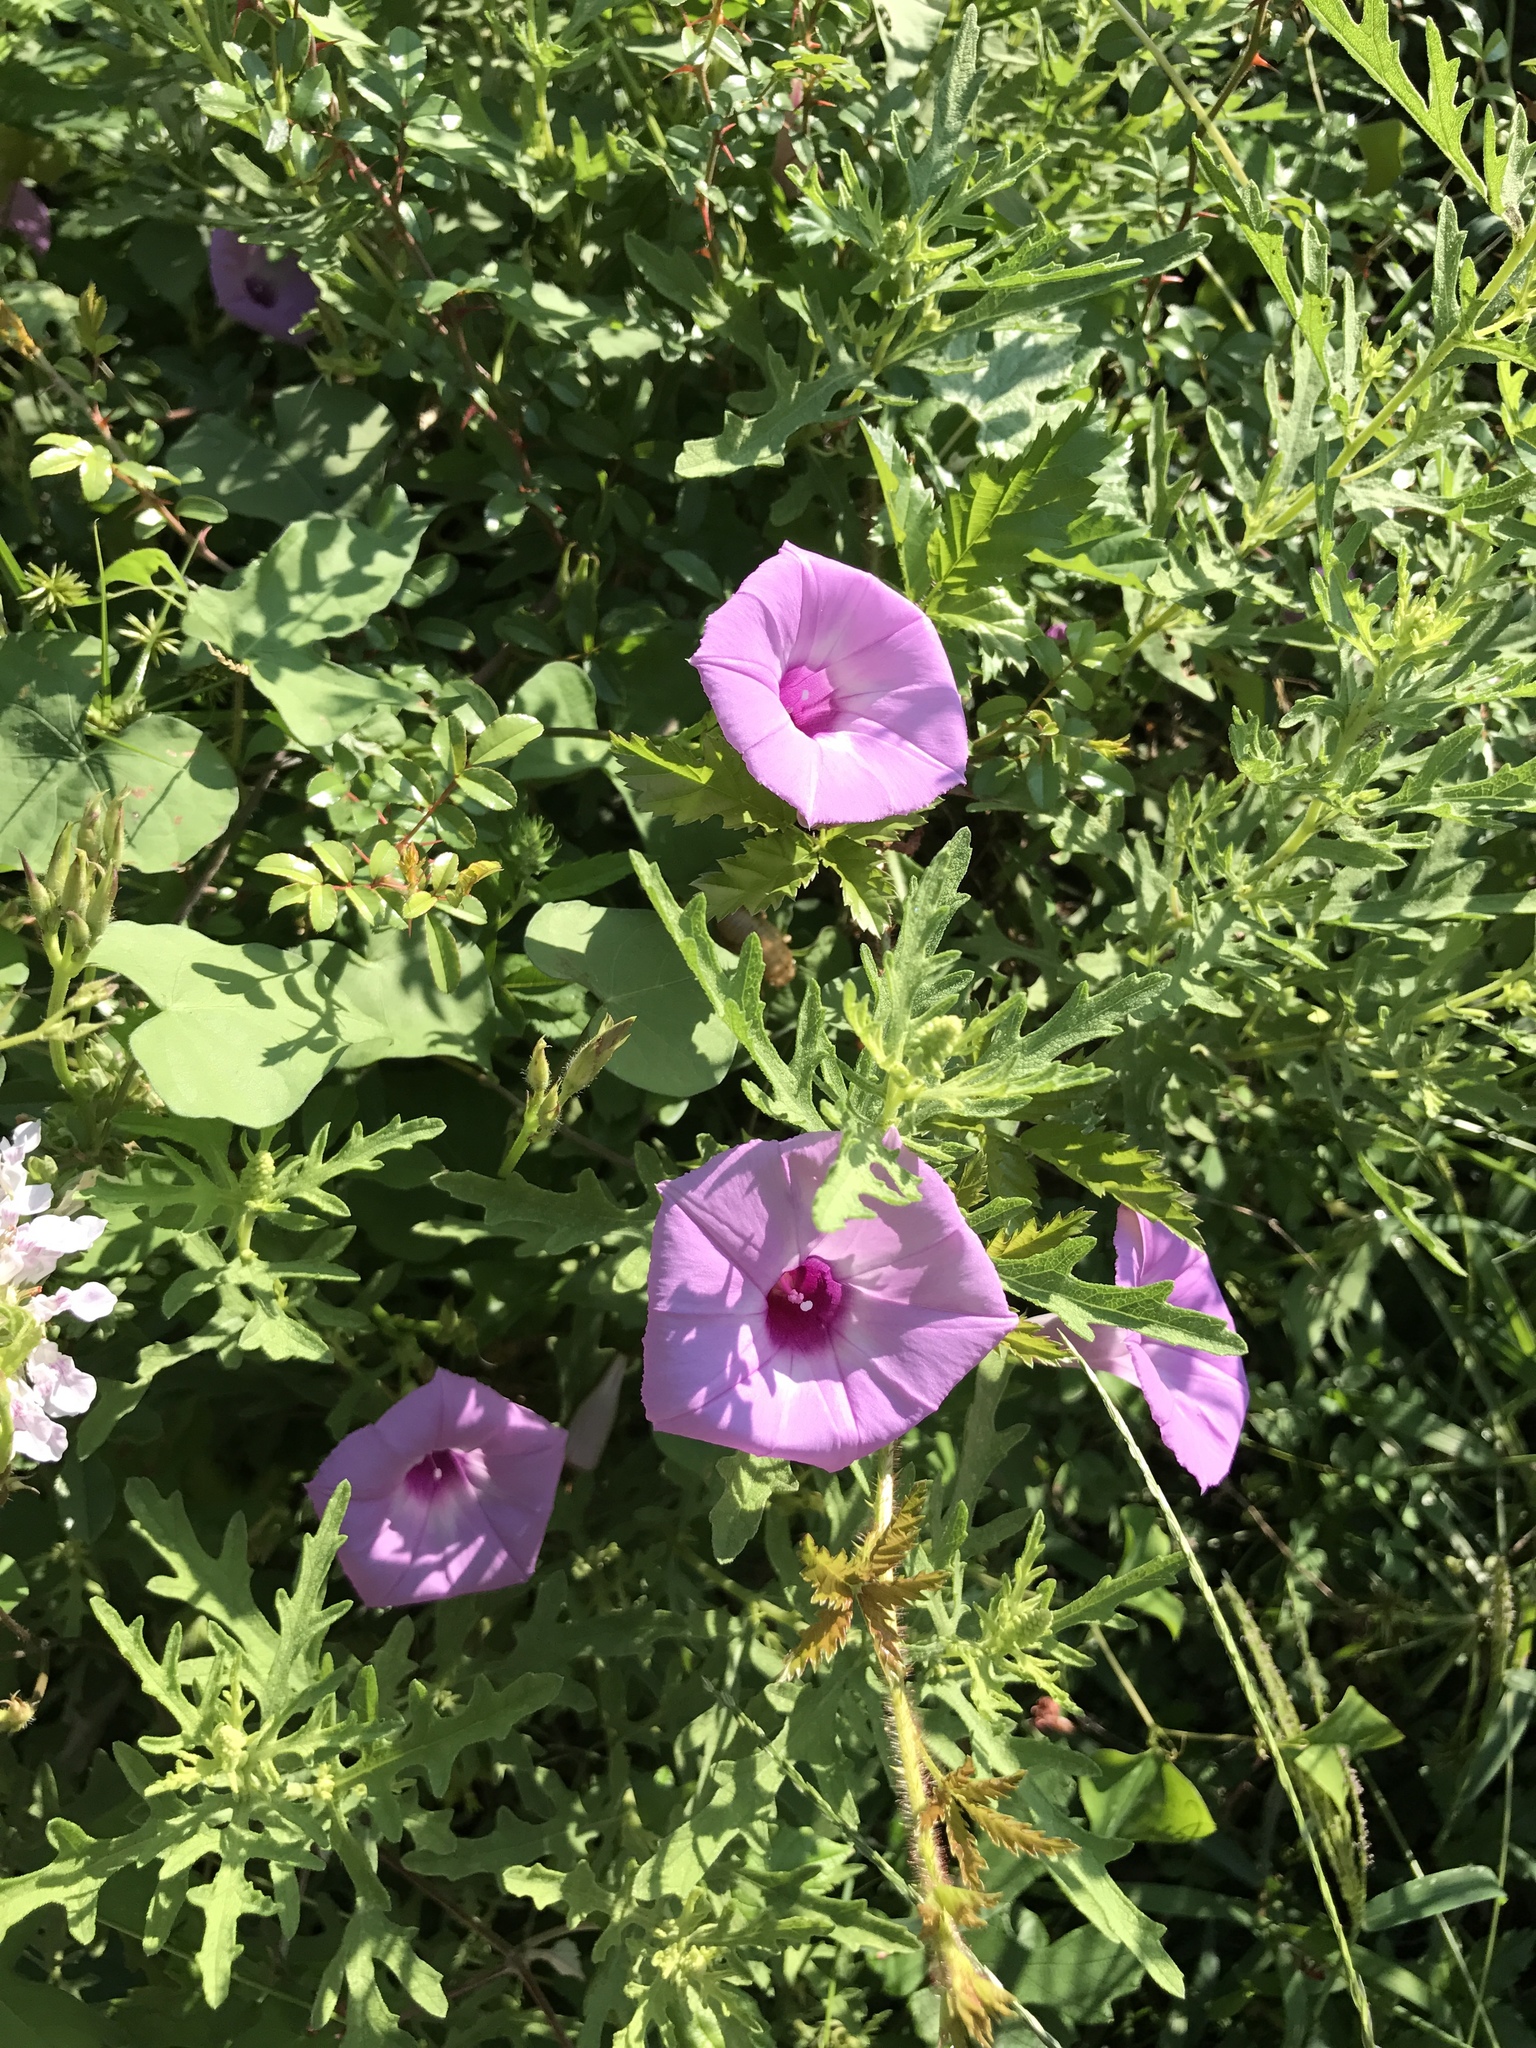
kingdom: Plantae
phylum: Tracheophyta
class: Magnoliopsida
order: Solanales
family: Convolvulaceae
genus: Ipomoea
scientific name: Ipomoea cordatotriloba
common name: Cotton morning glory
